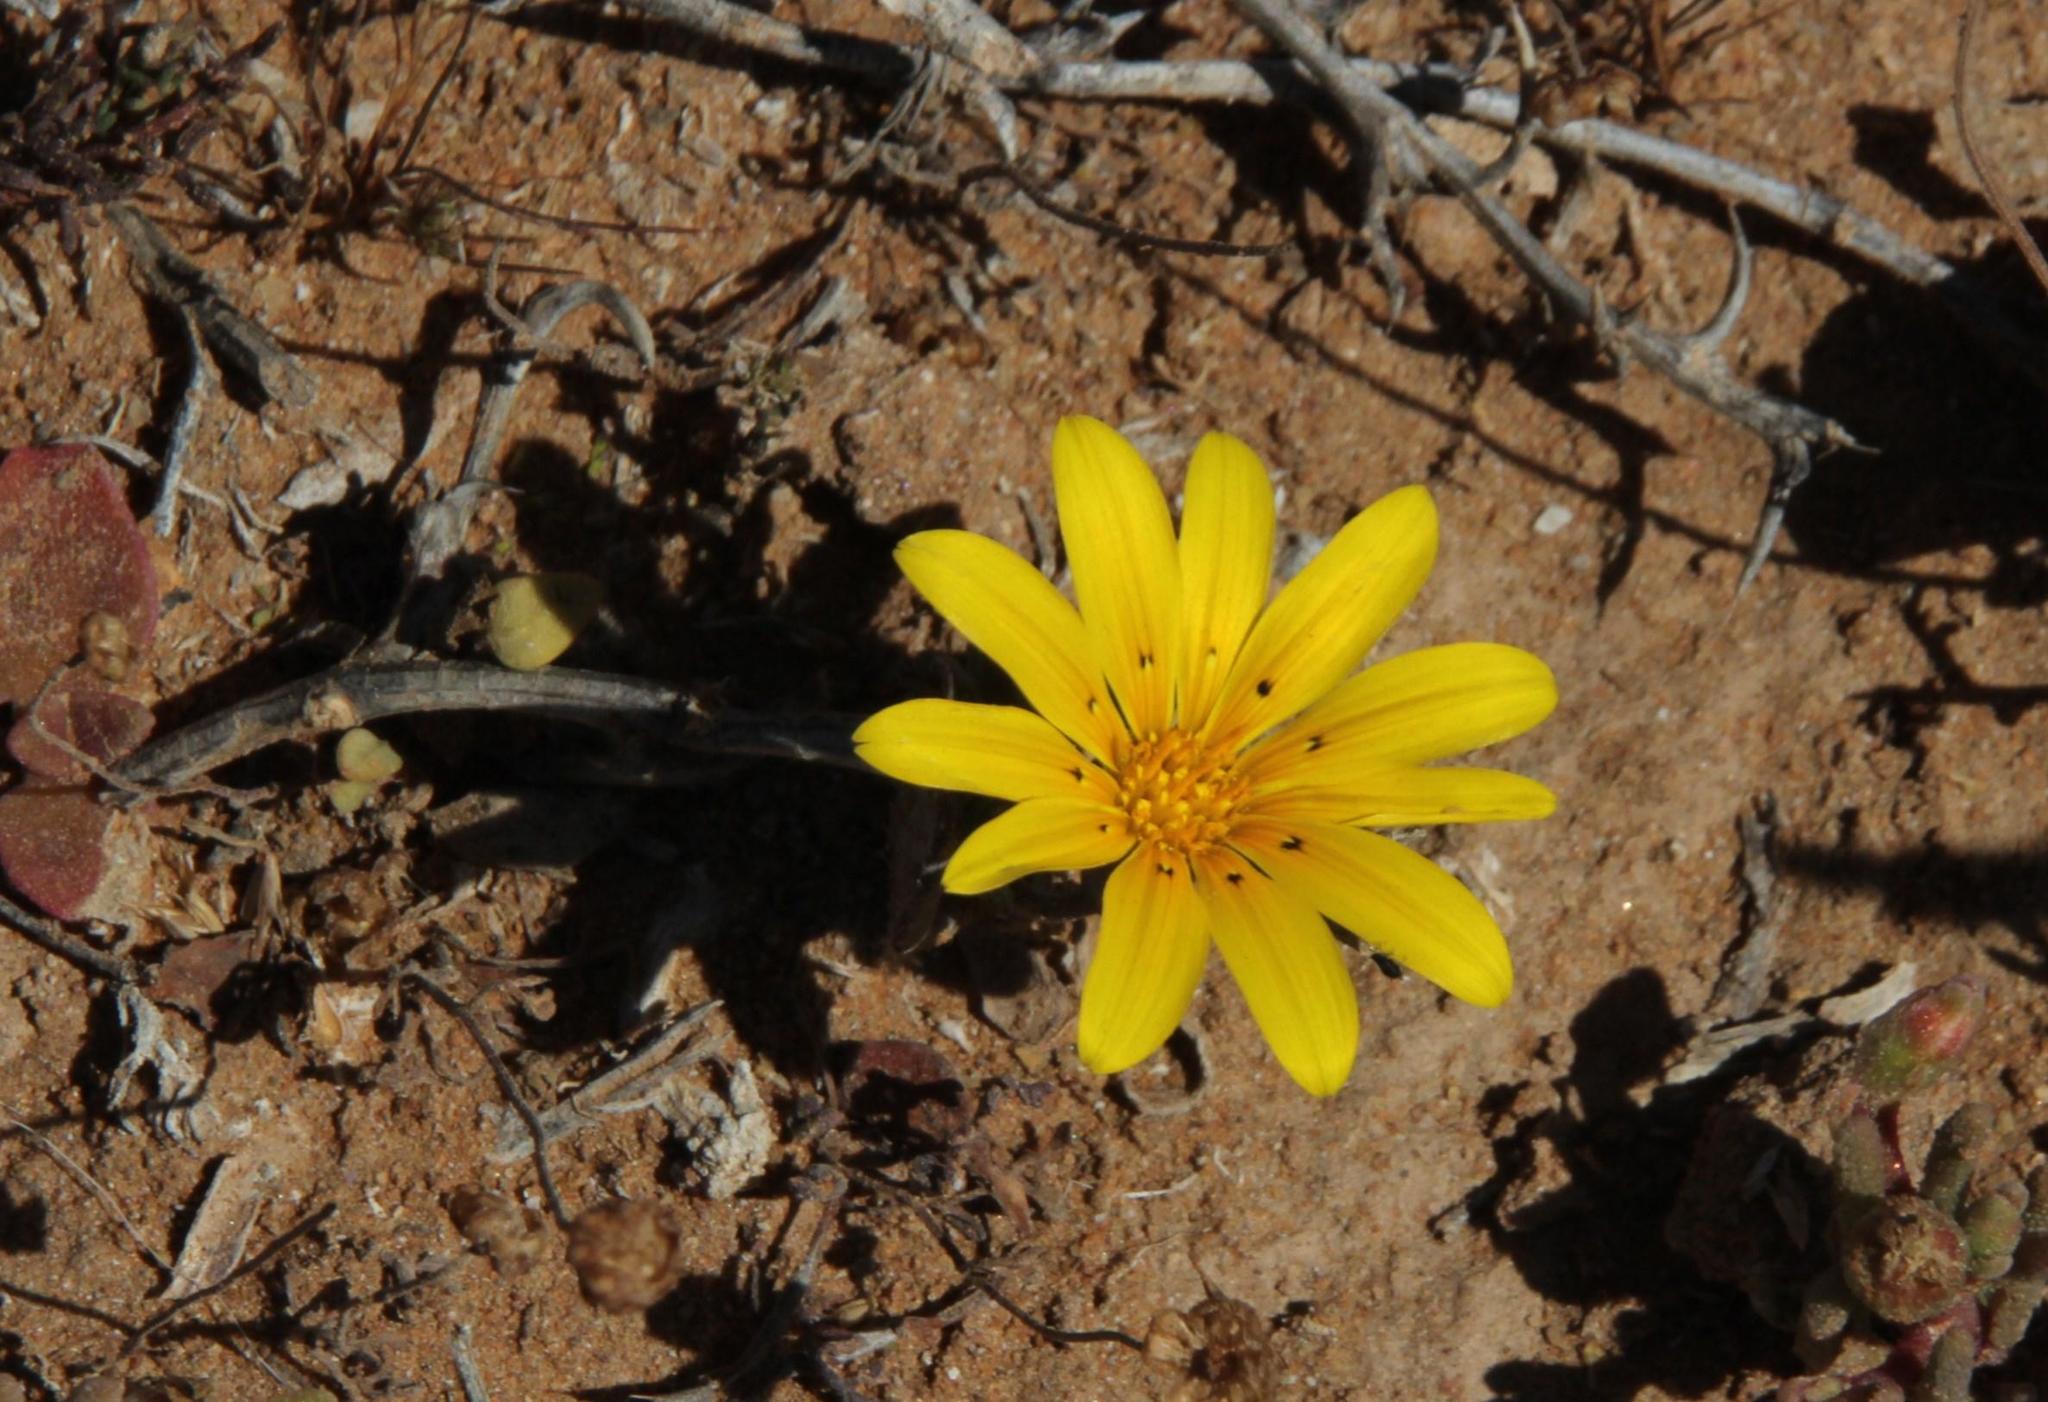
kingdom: Plantae
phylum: Tracheophyta
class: Magnoliopsida
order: Asterales
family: Asteraceae
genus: Gazania
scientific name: Gazania lichtensteinii
